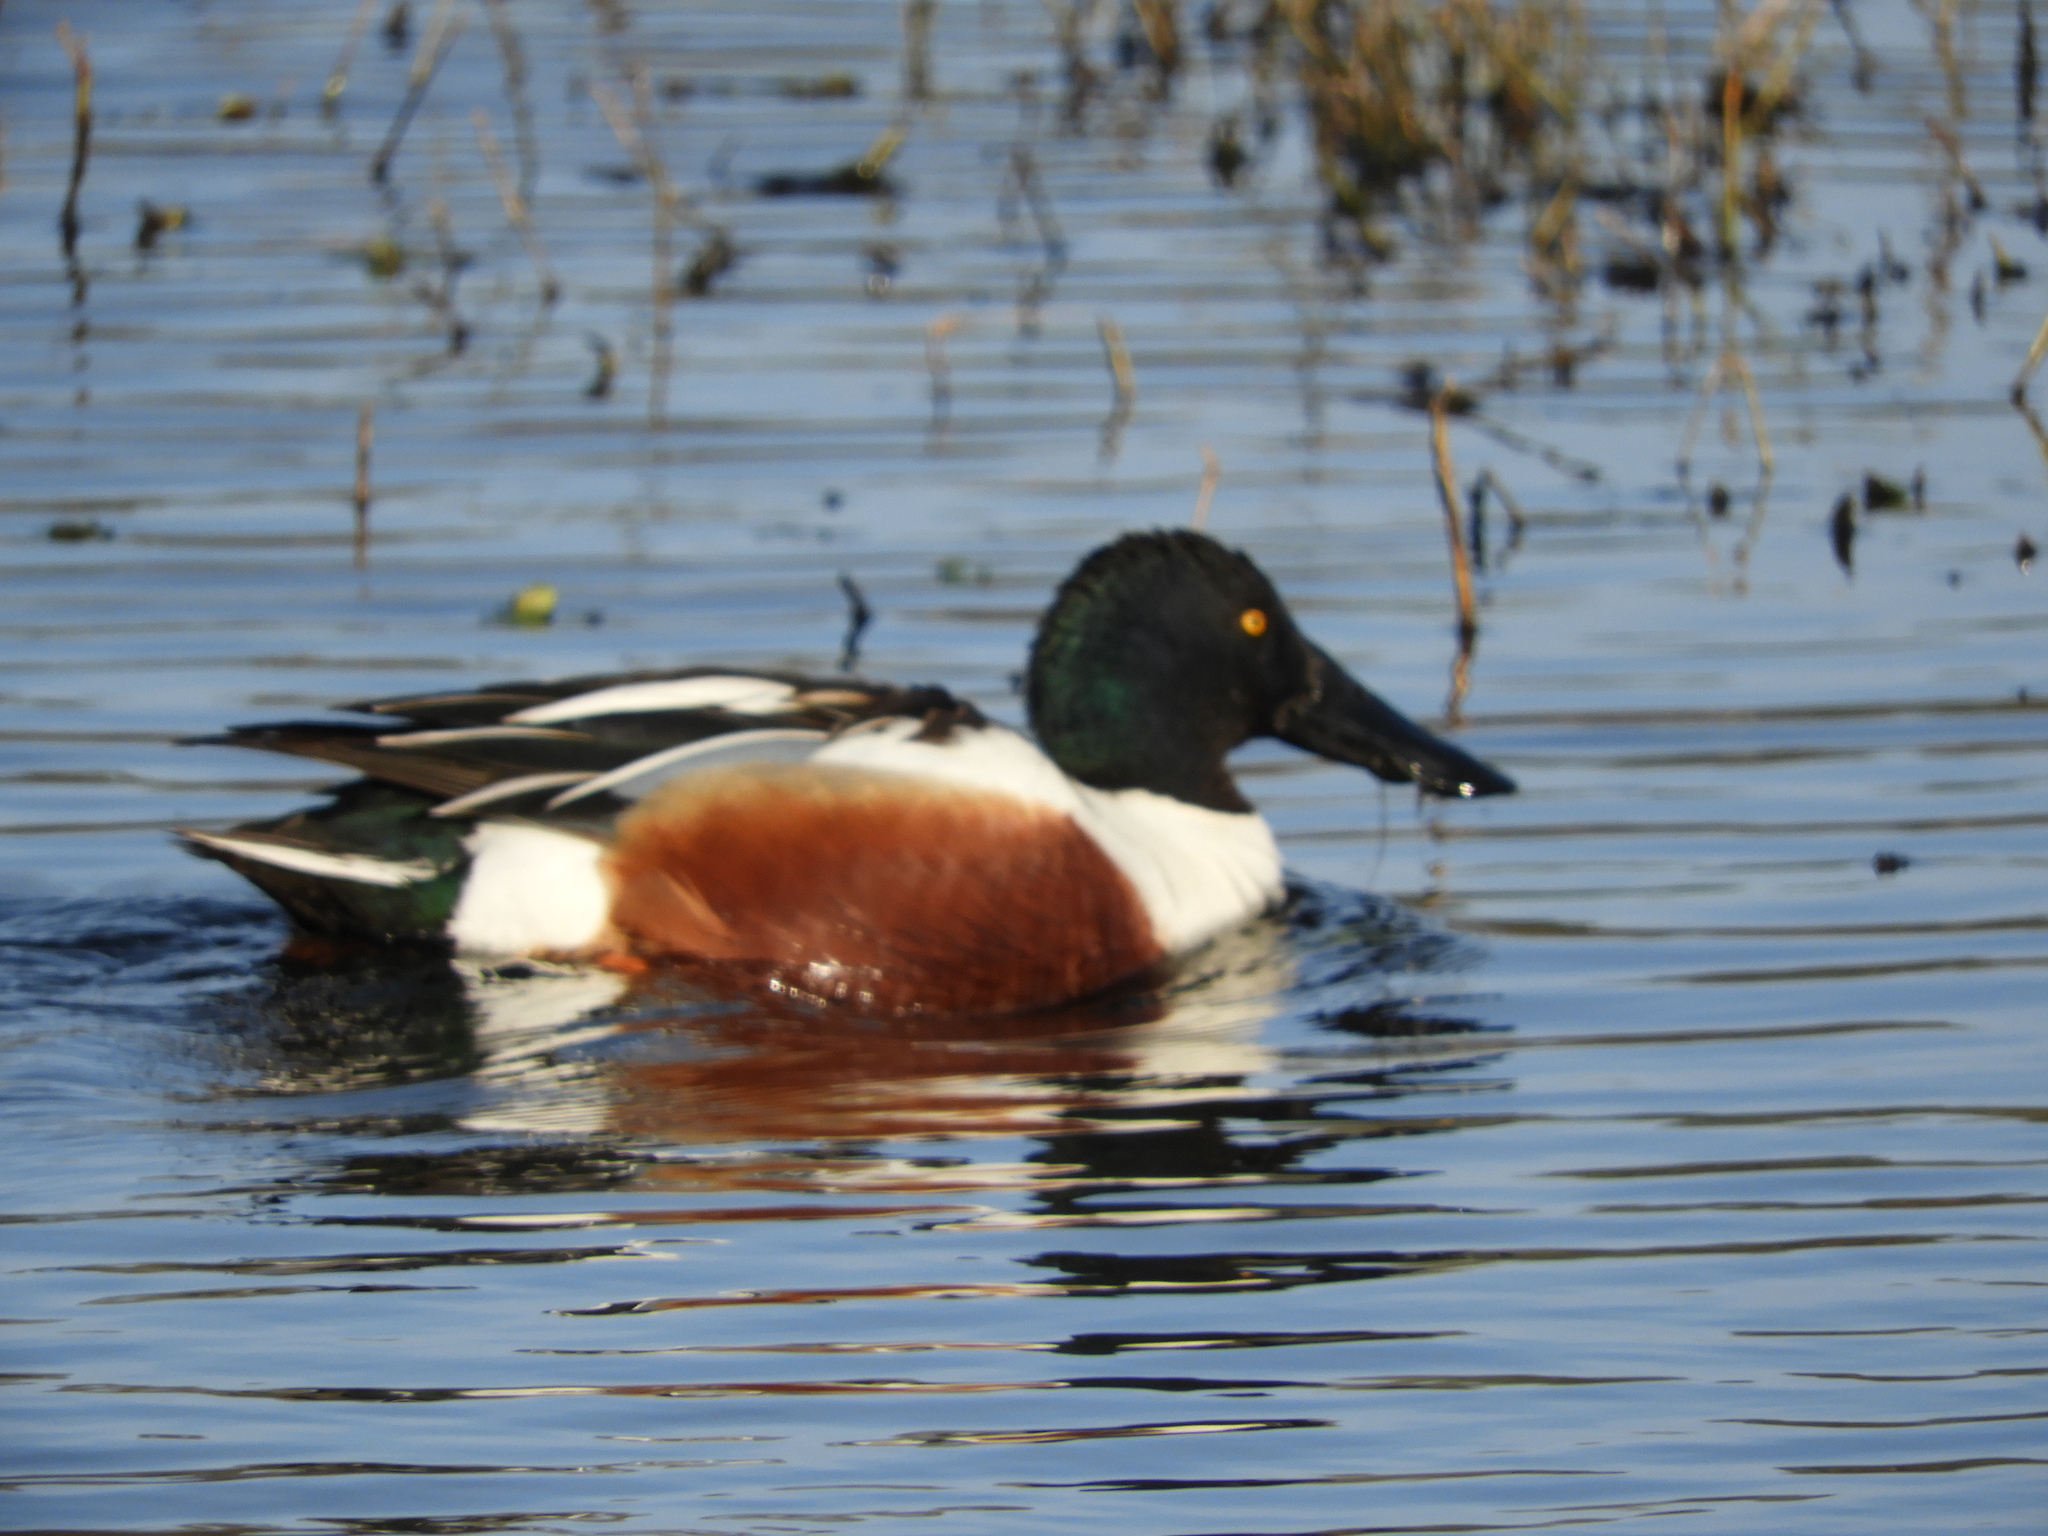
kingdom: Animalia
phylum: Chordata
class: Aves
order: Anseriformes
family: Anatidae
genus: Spatula
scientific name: Spatula clypeata
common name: Northern shoveler
